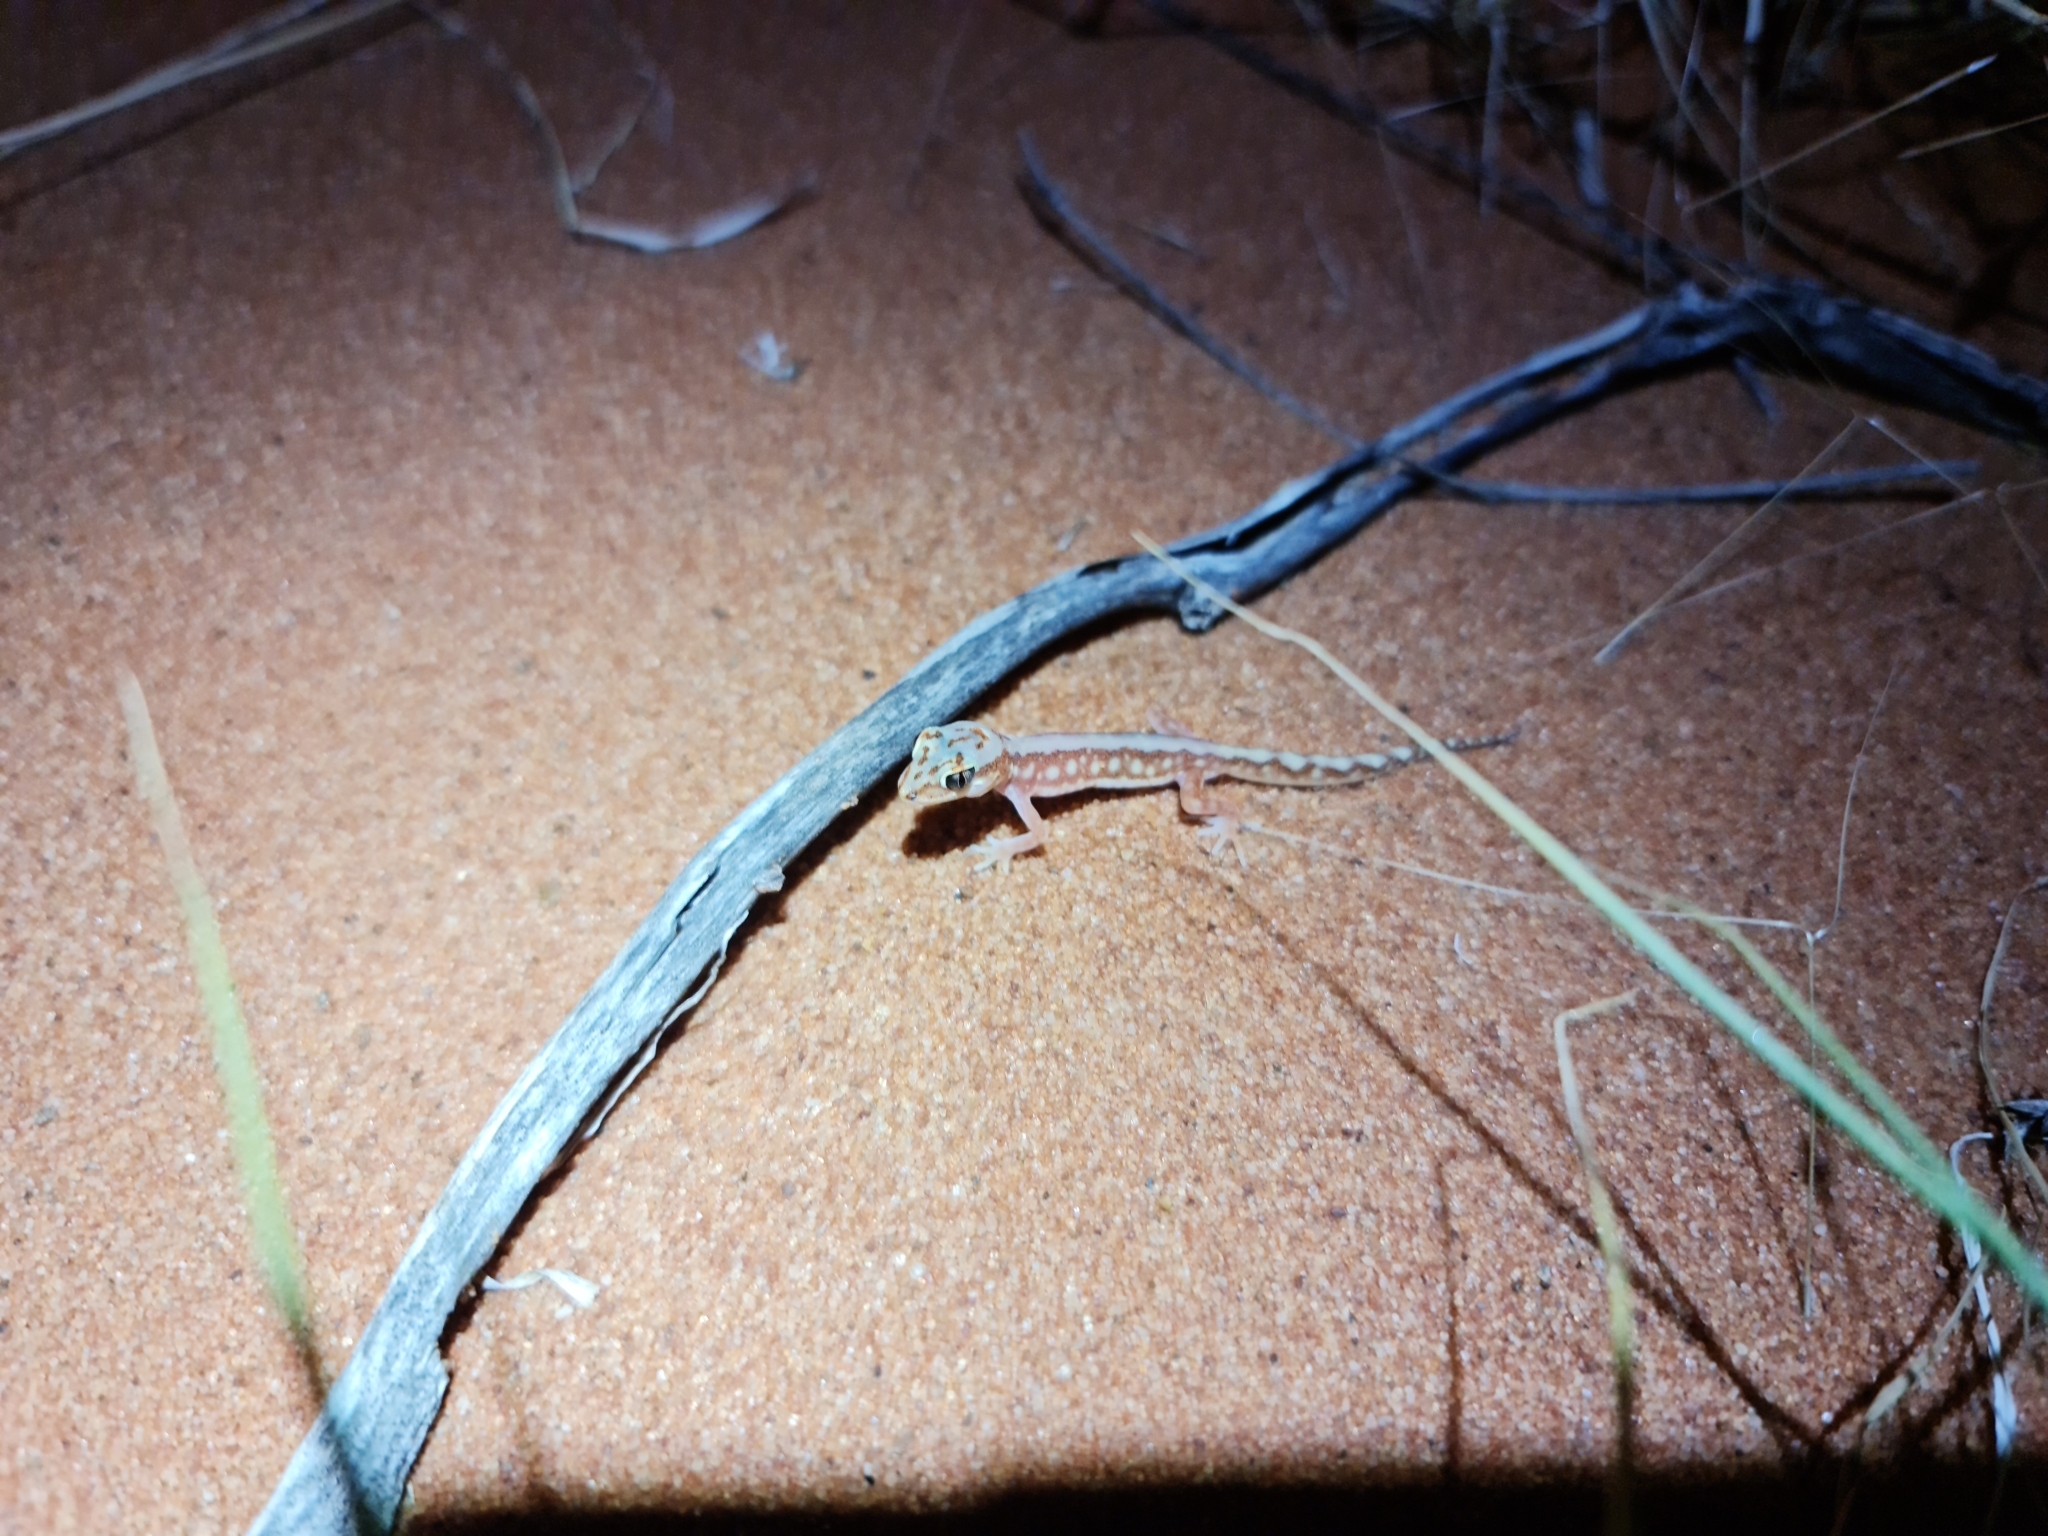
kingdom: Animalia
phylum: Chordata
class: Squamata
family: Diplodactylidae
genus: Lucasium
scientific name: Lucasium damaeum
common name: Beaded gecko
